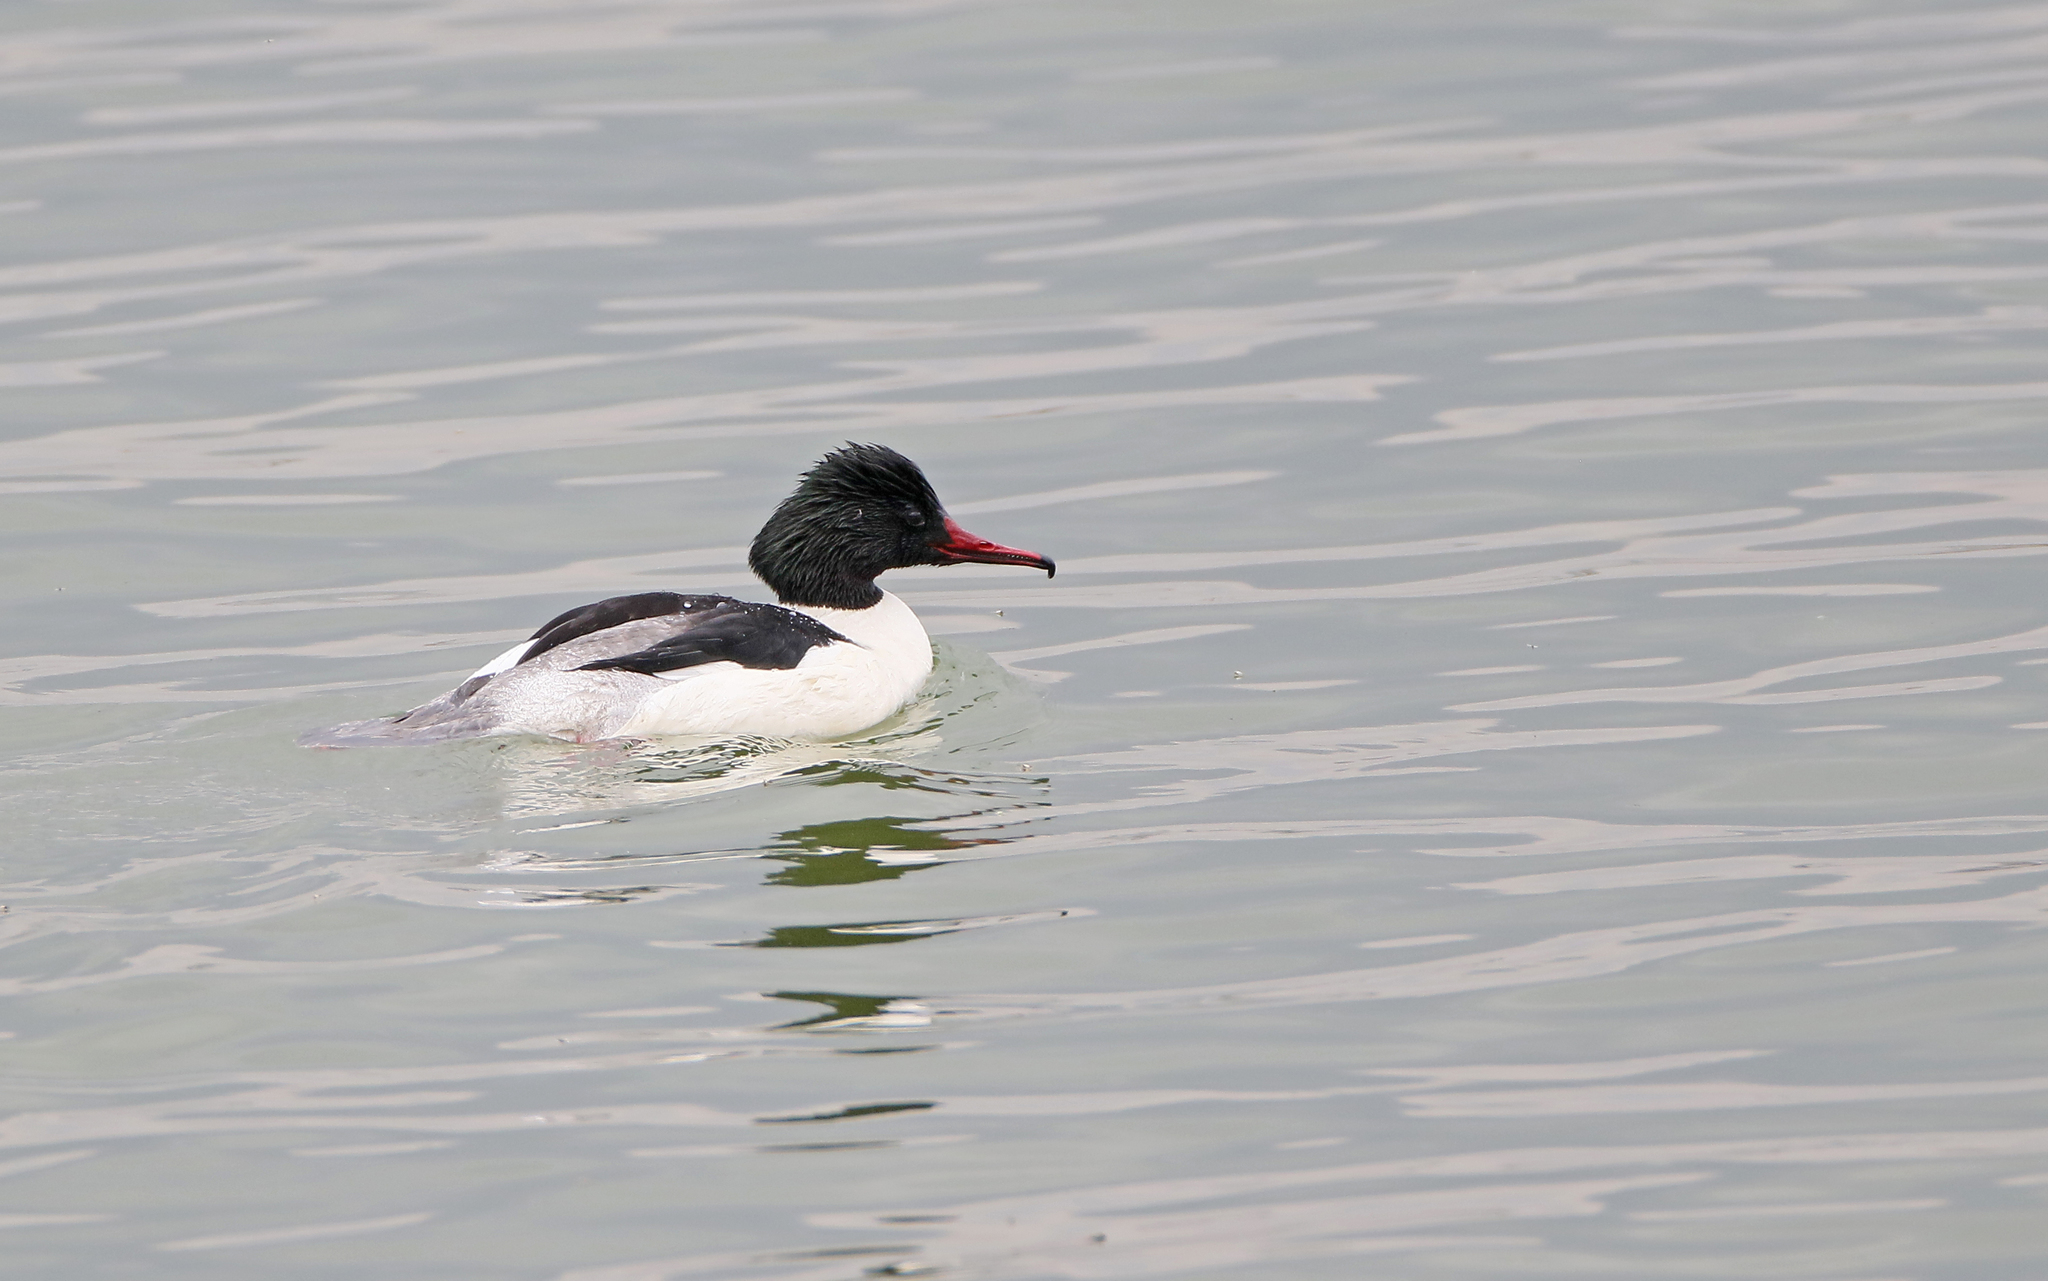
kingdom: Animalia
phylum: Chordata
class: Aves
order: Anseriformes
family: Anatidae
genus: Mergus
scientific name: Mergus merganser
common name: Common merganser
